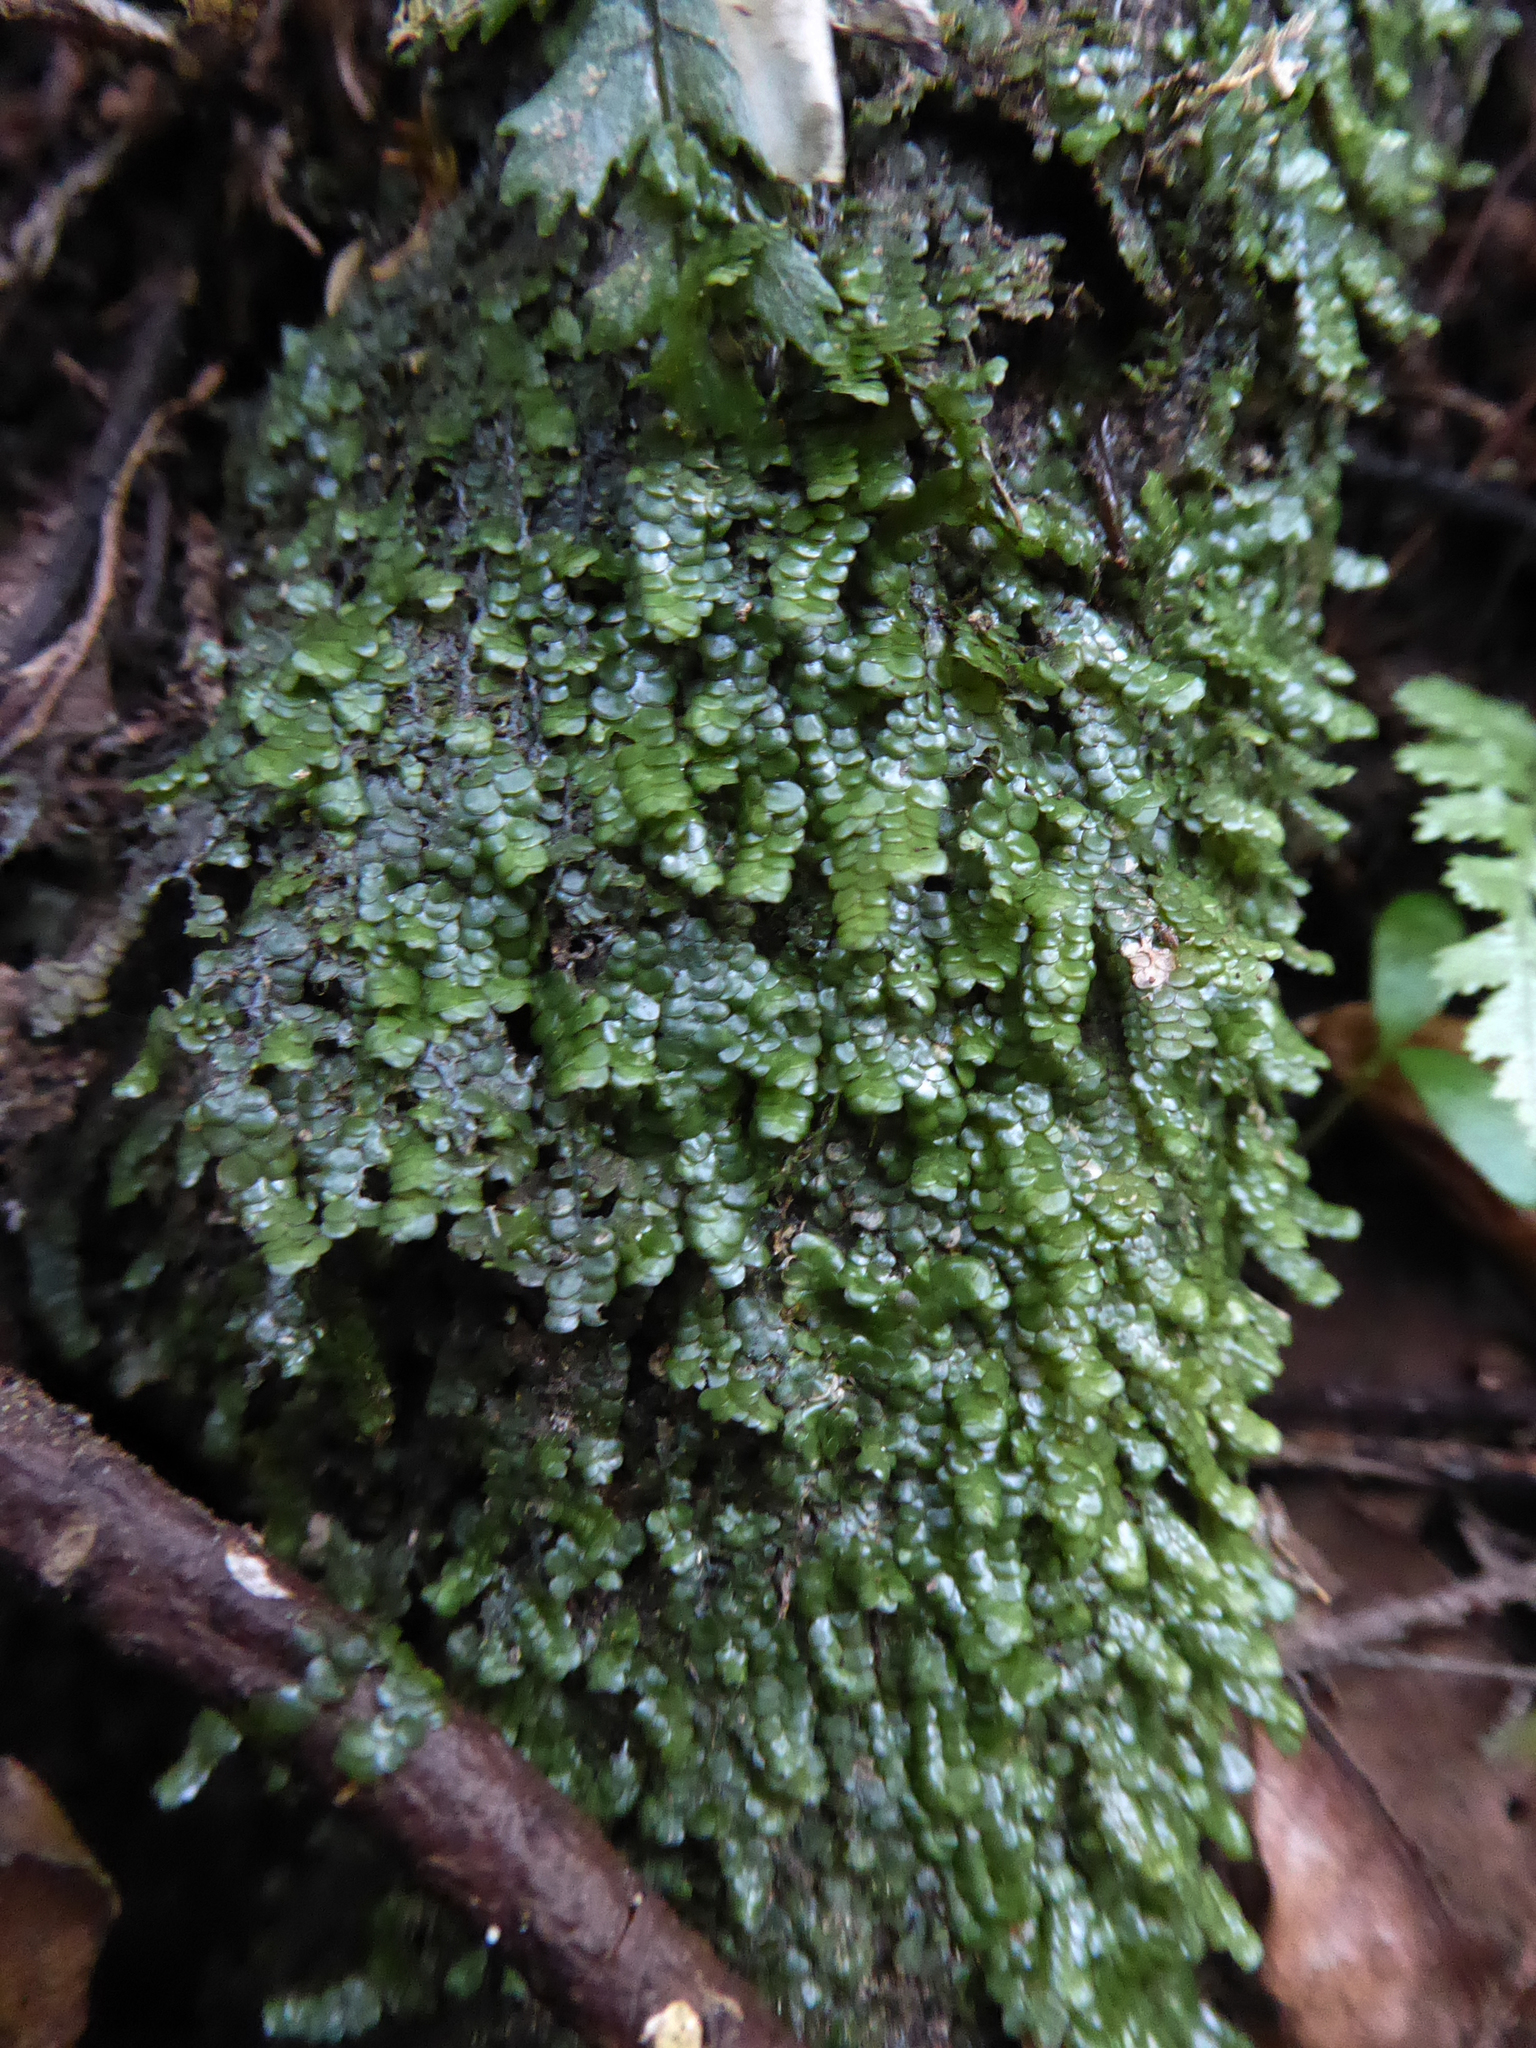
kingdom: Plantae
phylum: Marchantiophyta
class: Jungermanniopsida
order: Porellales
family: Radulaceae
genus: Radula
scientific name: Radula marginata
